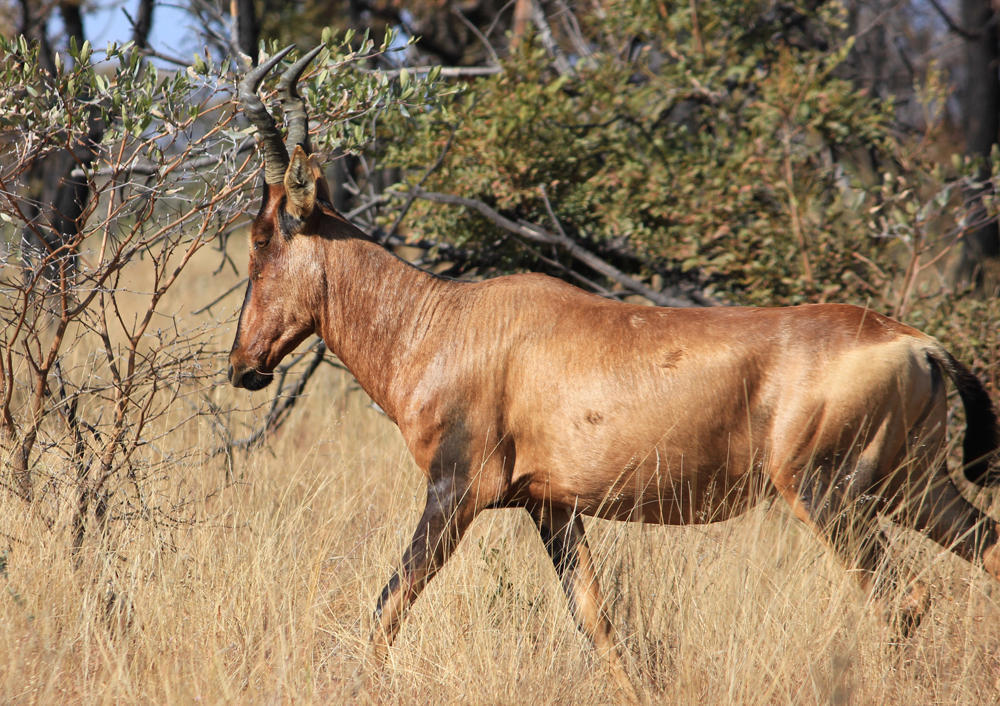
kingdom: Animalia
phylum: Chordata
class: Mammalia
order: Artiodactyla
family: Bovidae
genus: Alcelaphus
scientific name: Alcelaphus caama
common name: Red hartebeest
